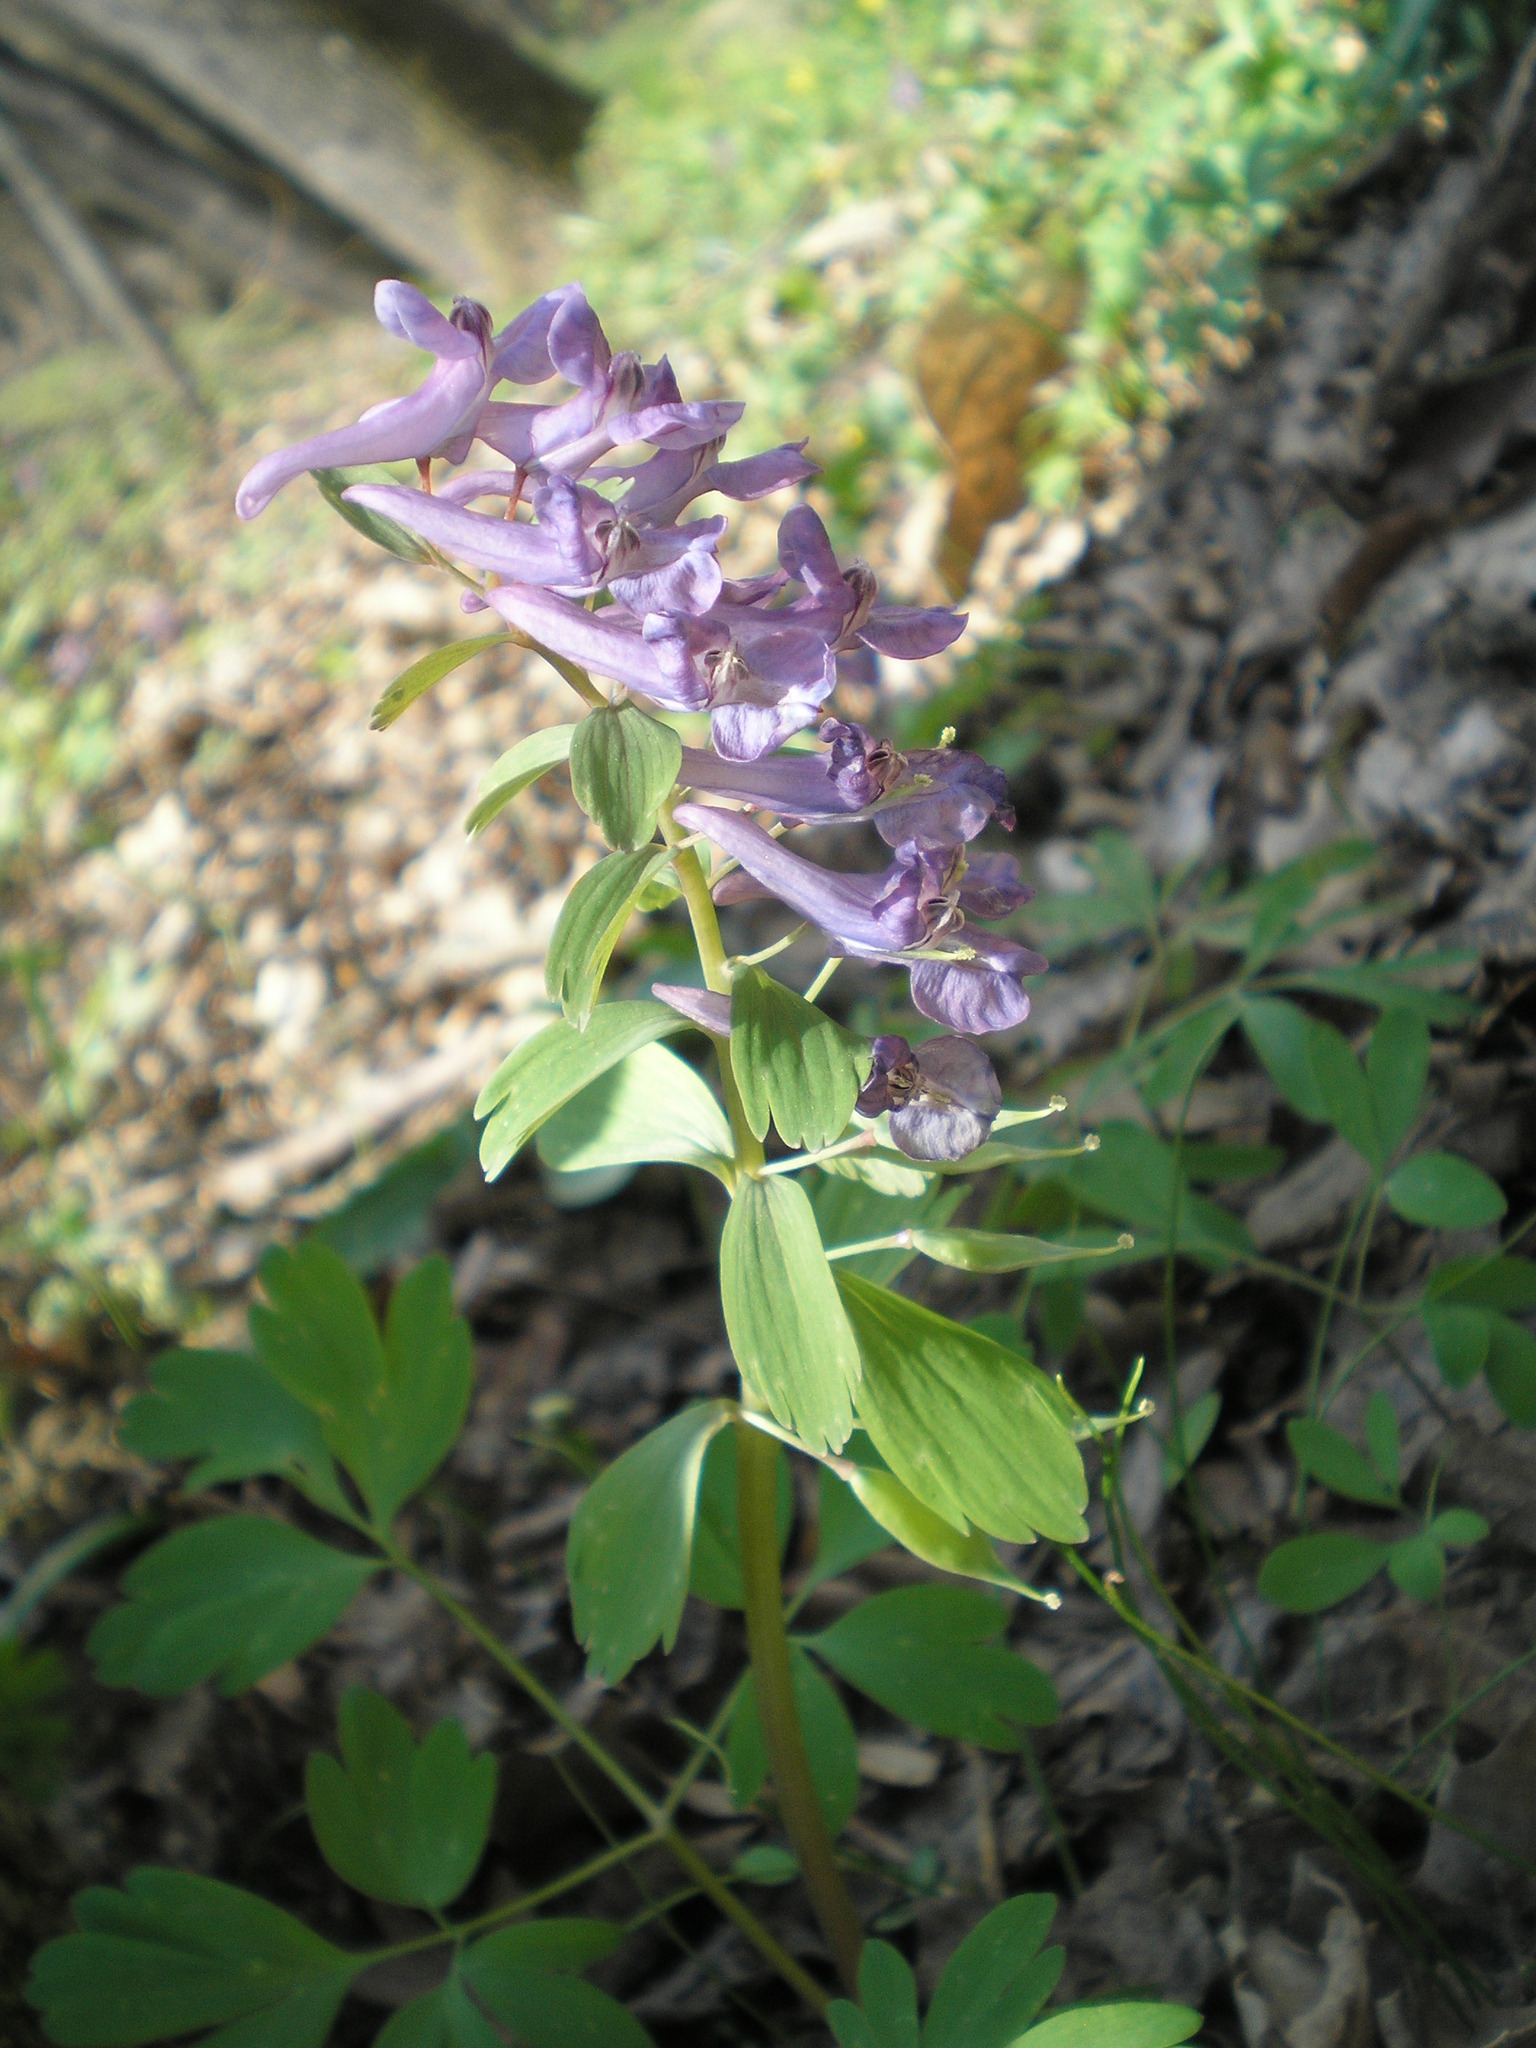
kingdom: Plantae
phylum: Tracheophyta
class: Magnoliopsida
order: Ranunculales
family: Papaveraceae
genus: Corydalis
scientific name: Corydalis solida
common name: Bird-in-a-bush
